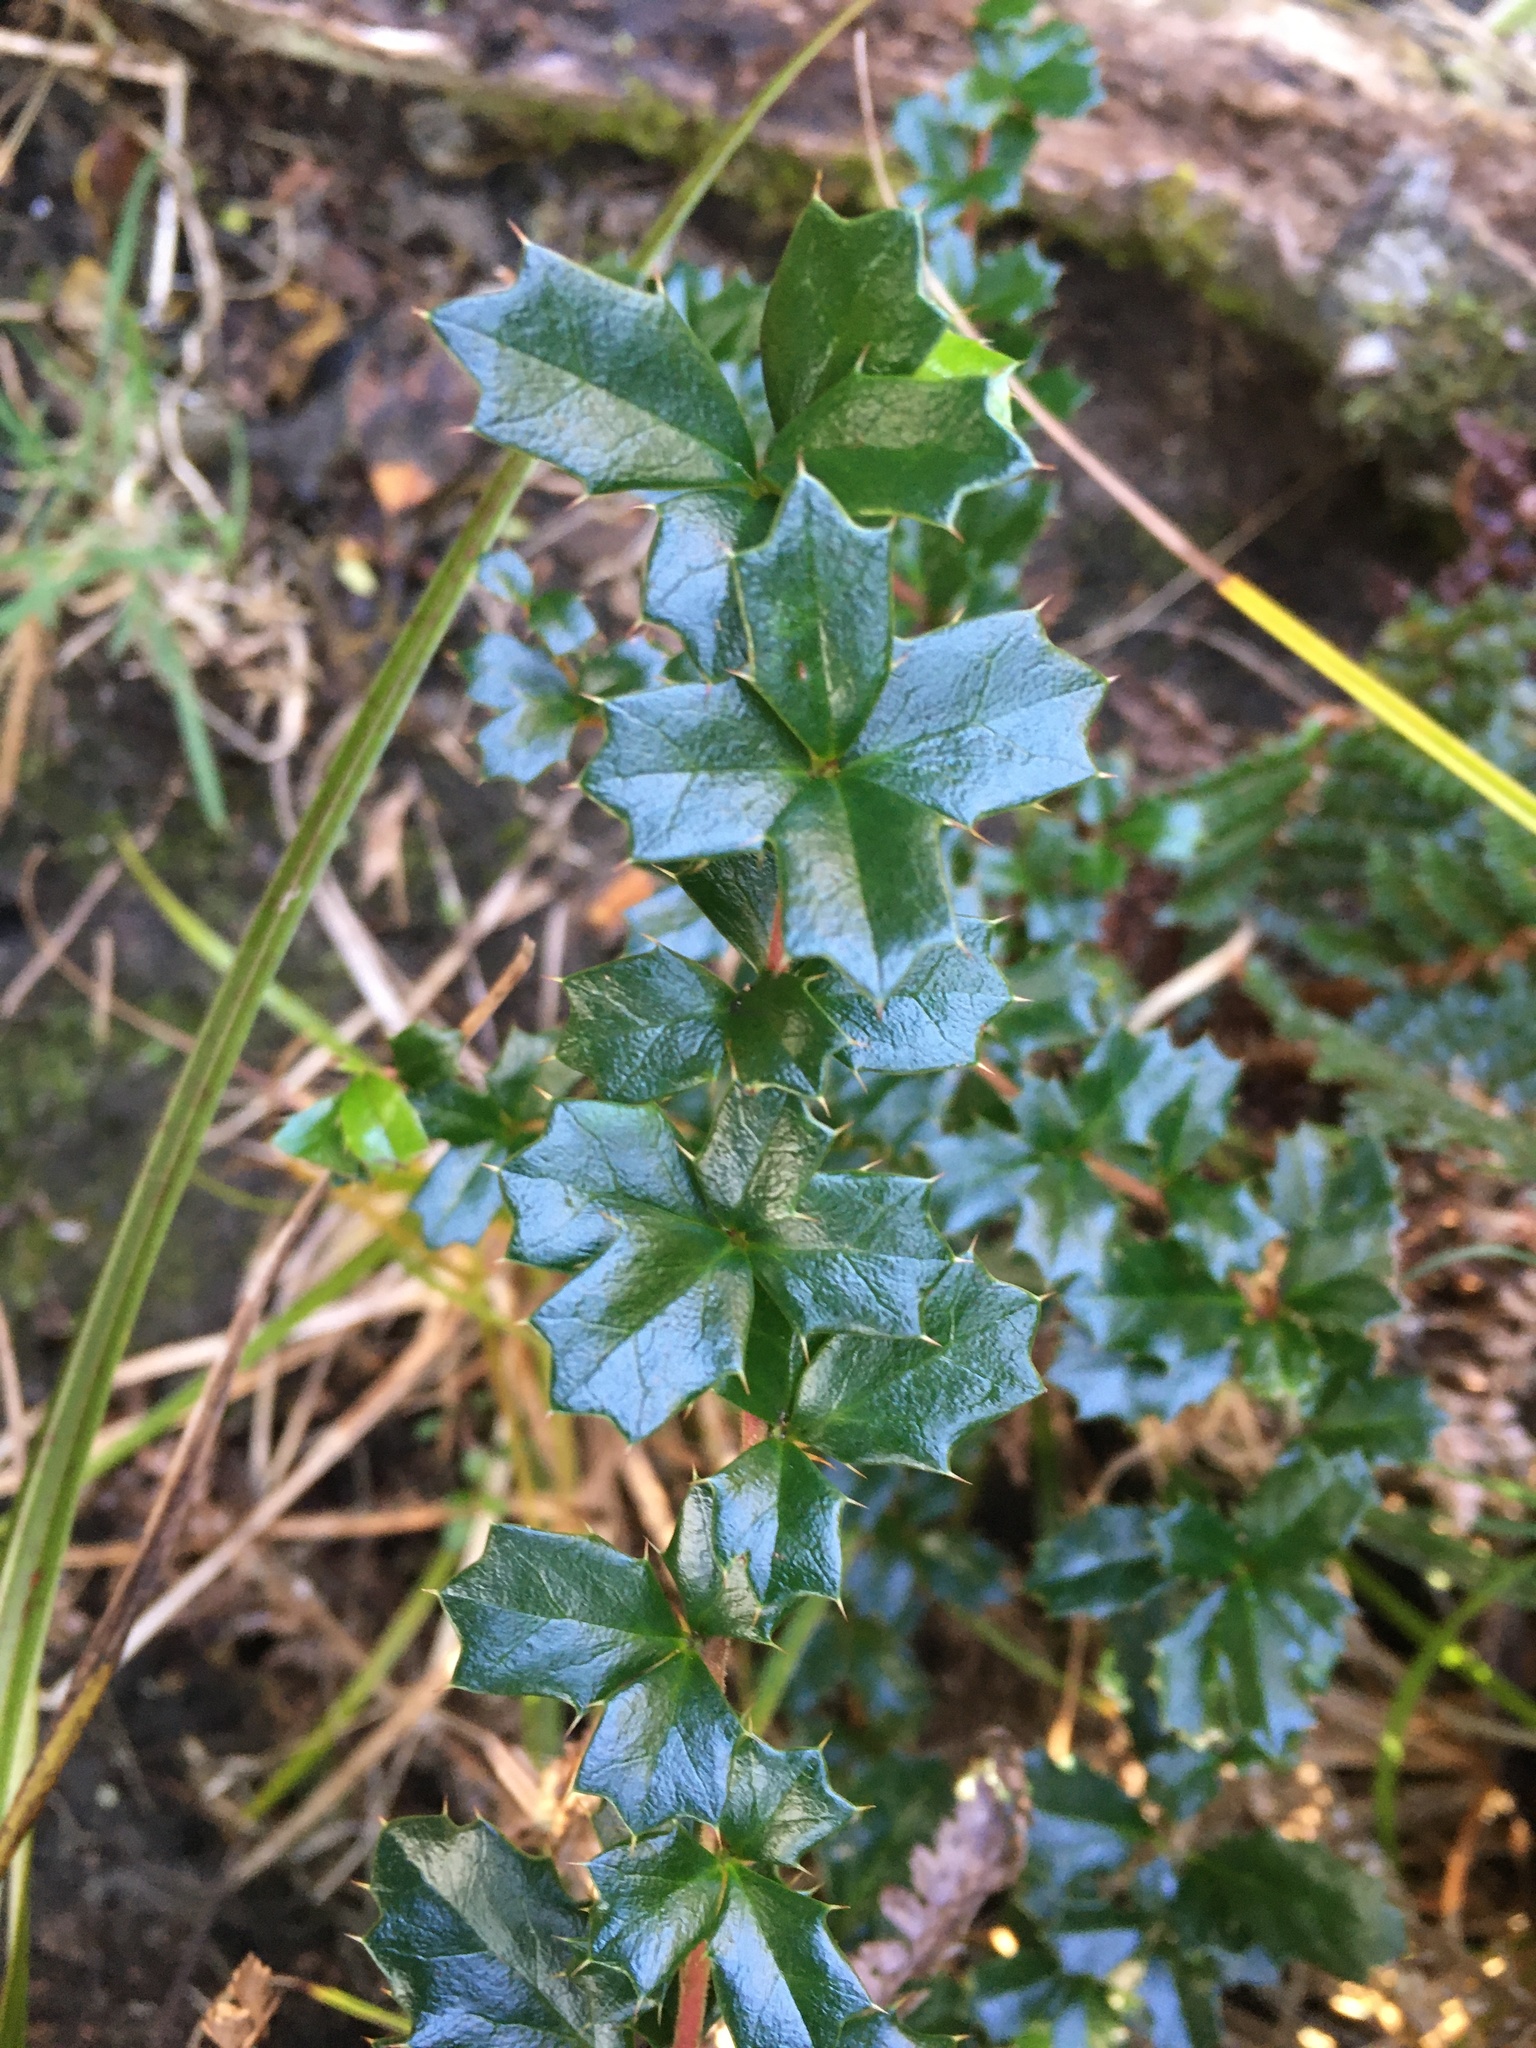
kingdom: Plantae
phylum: Tracheophyta
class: Magnoliopsida
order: Ranunculales
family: Berberidaceae
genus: Berberis
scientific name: Berberis darwinii
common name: Darwin's barberry
